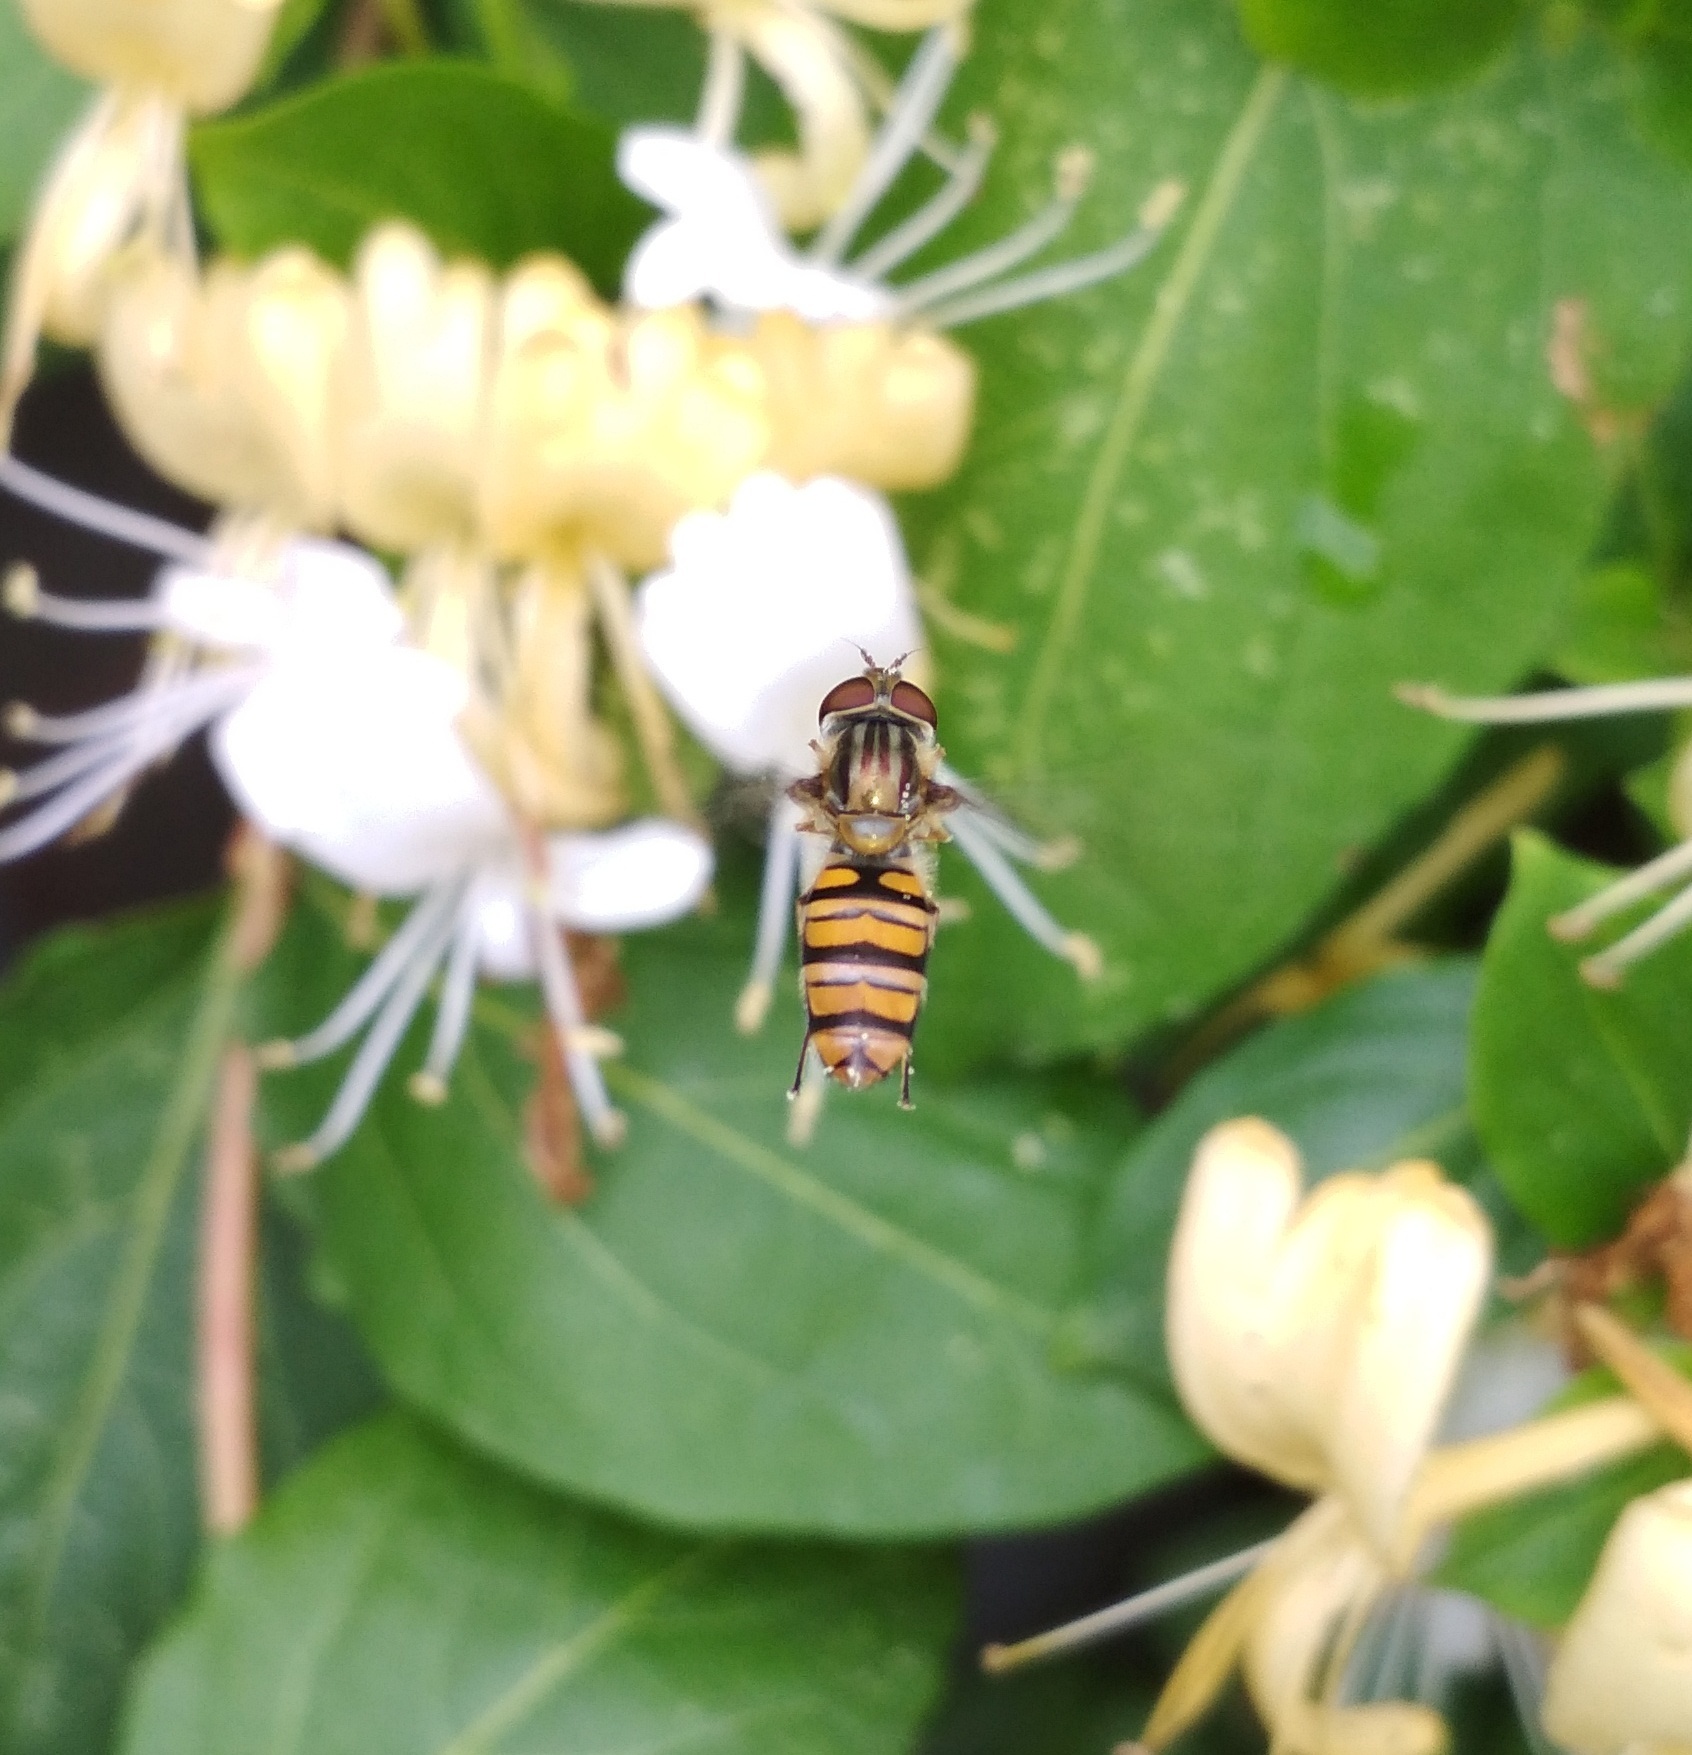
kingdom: Animalia
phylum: Arthropoda
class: Insecta
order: Diptera
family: Syrphidae
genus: Episyrphus
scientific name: Episyrphus balteatus
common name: Marmalade hoverfly
